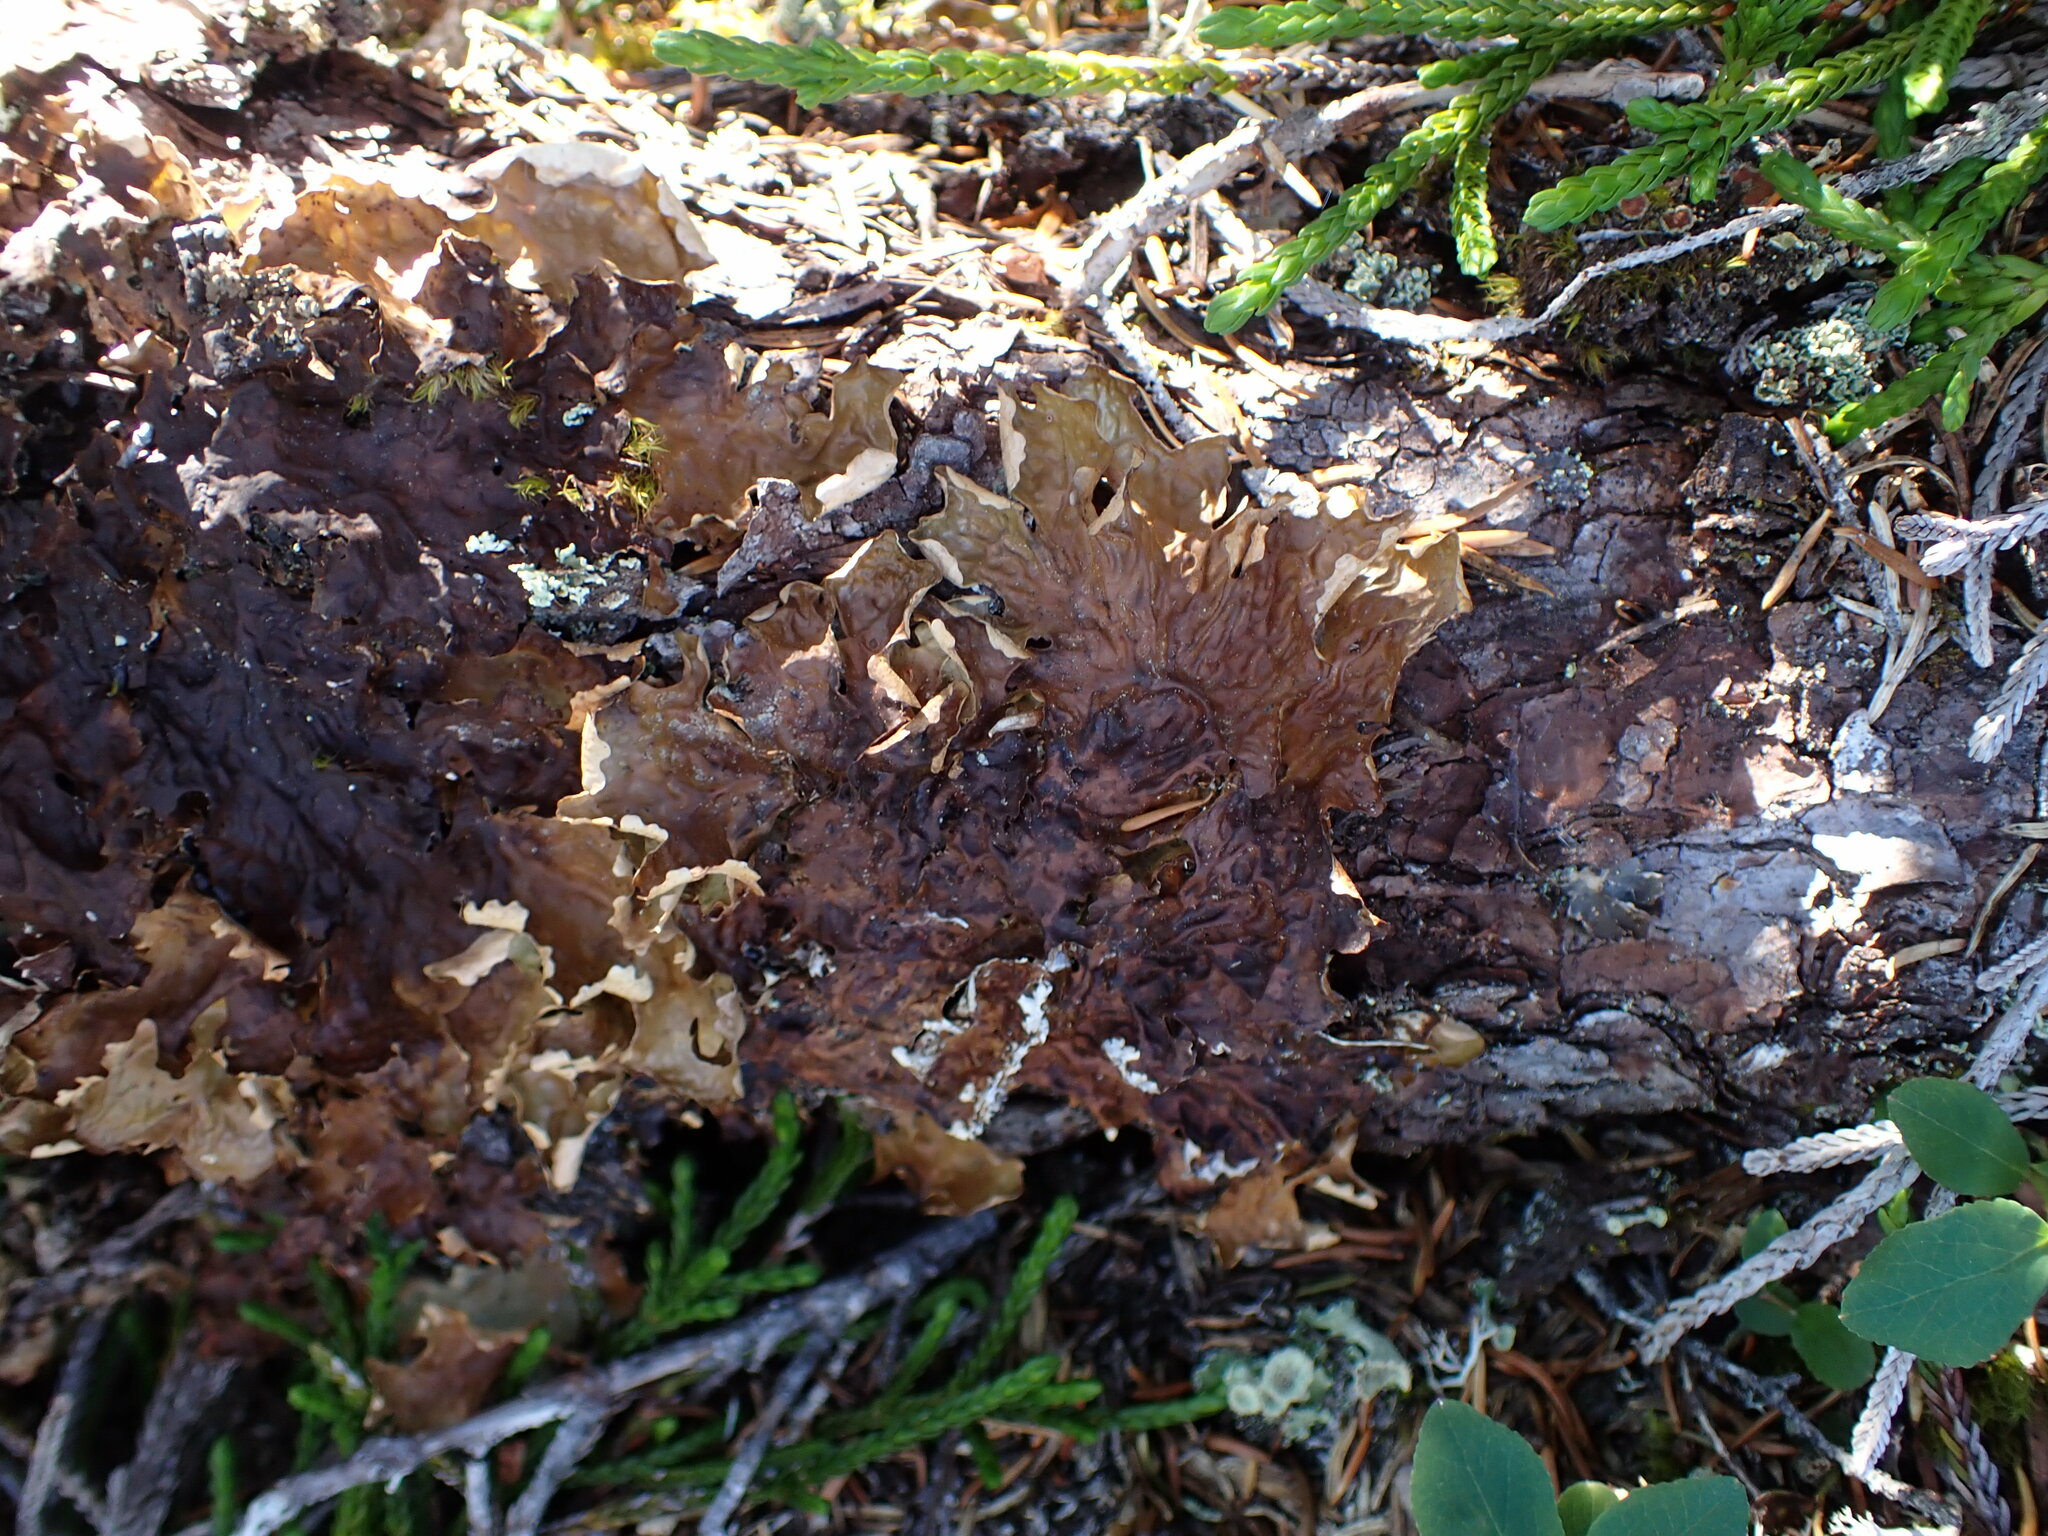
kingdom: Fungi
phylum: Ascomycota
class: Lecanoromycetes
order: Peltigerales
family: Lobariaceae
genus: Lobaria
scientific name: Lobaria linita
